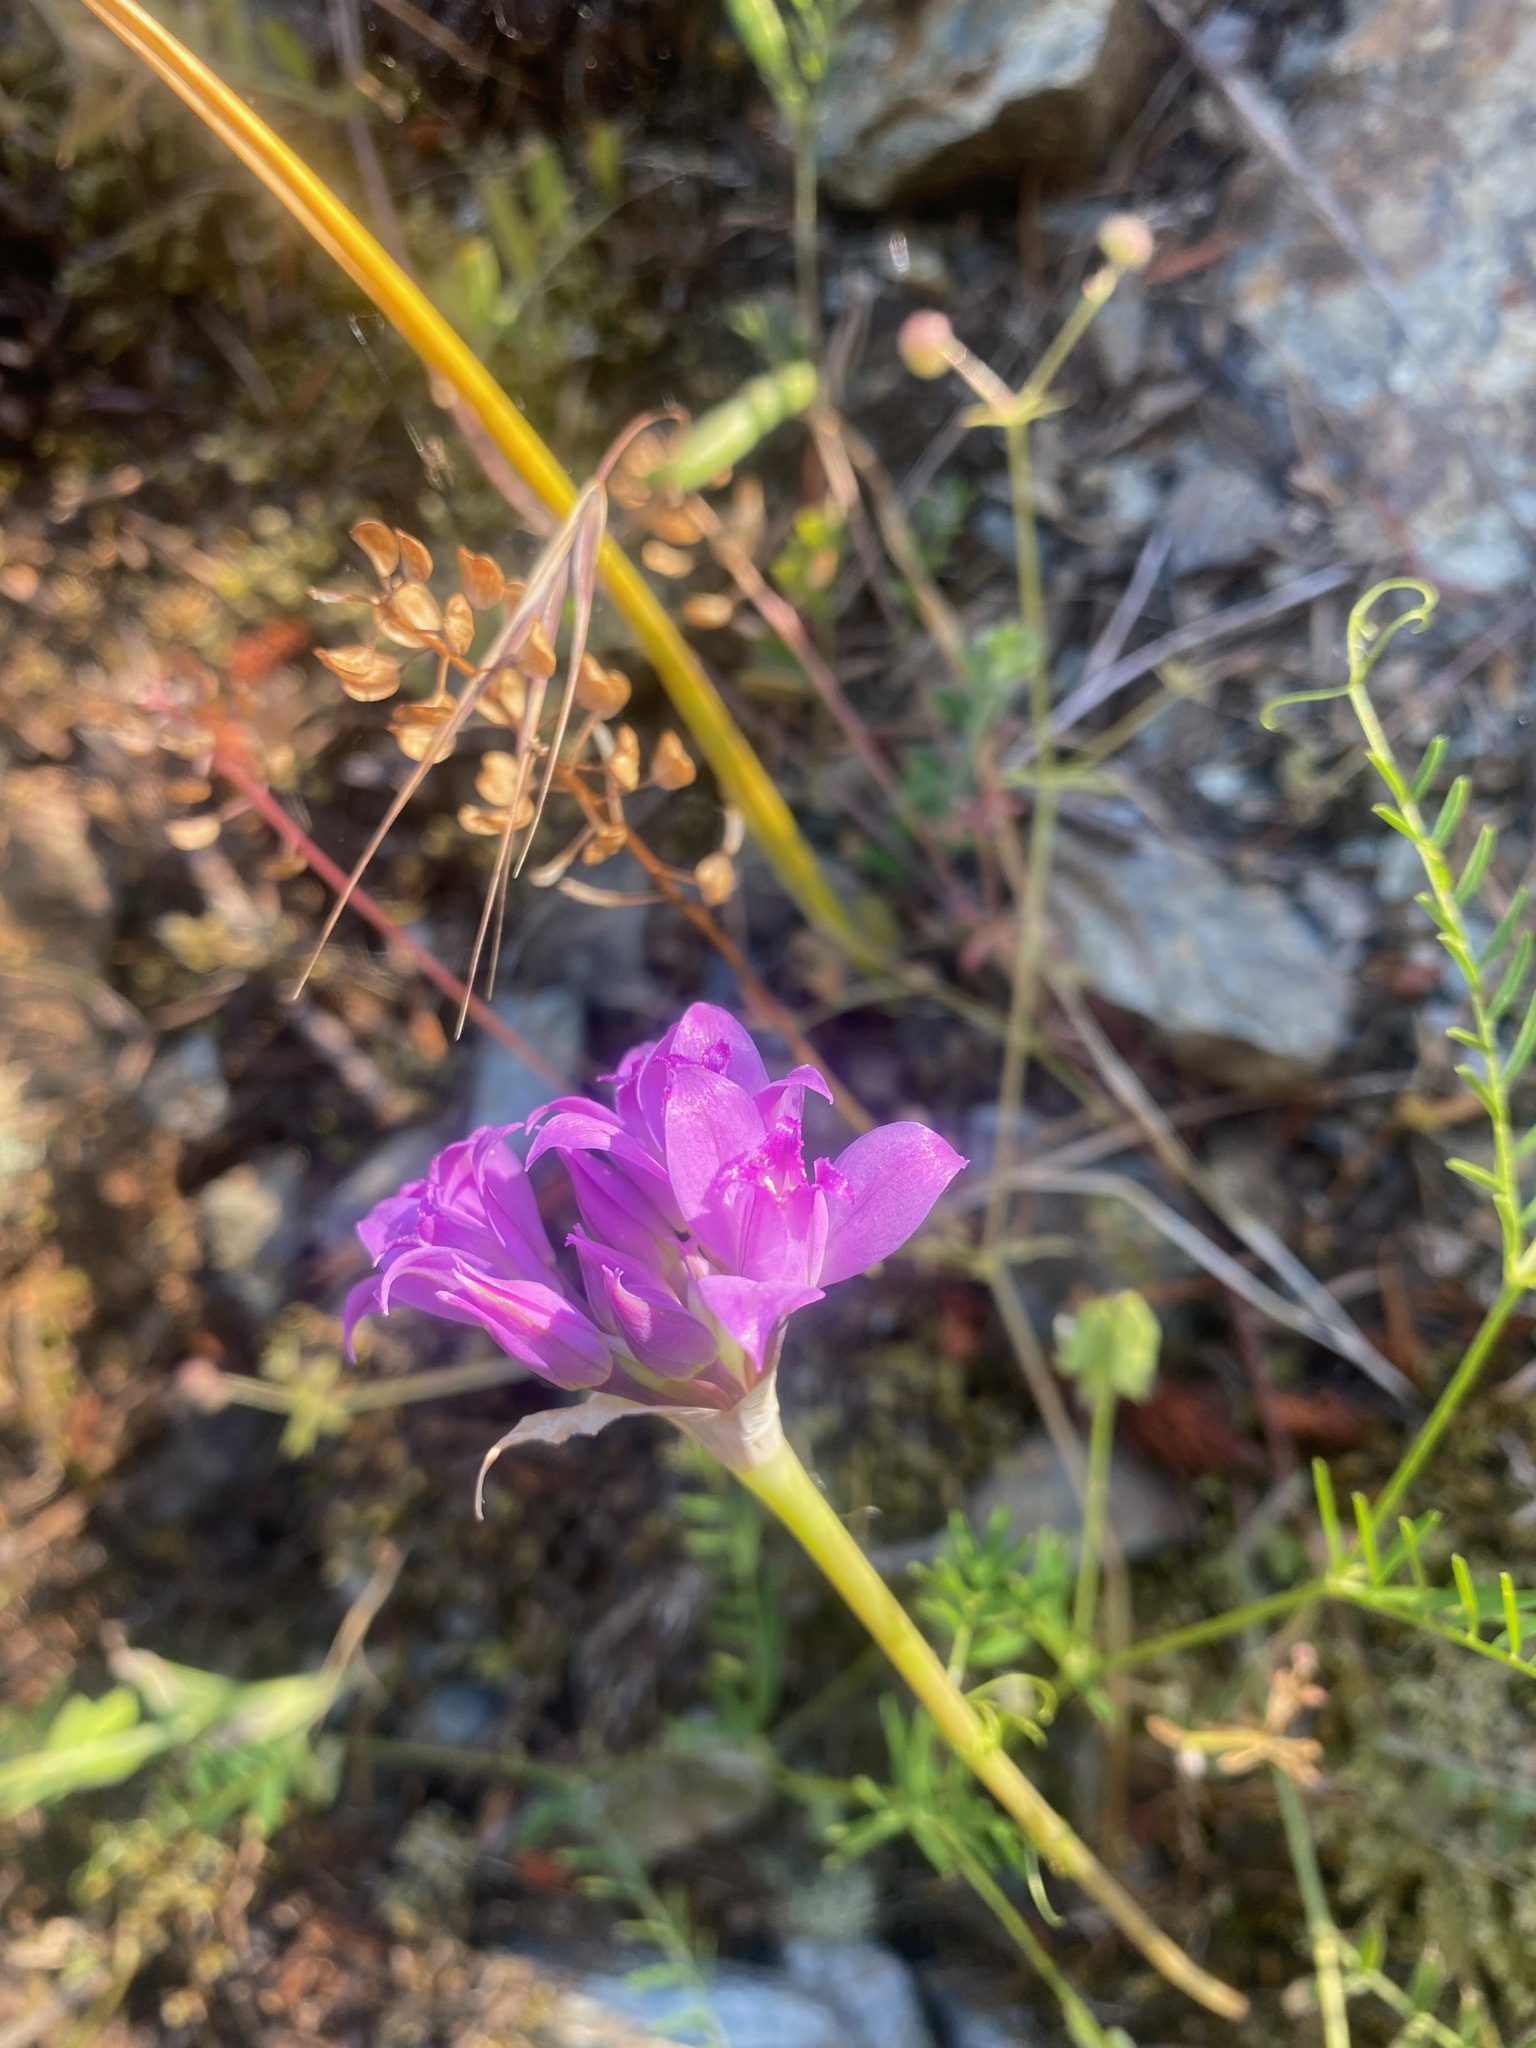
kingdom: Plantae
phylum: Tracheophyta
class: Liliopsida
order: Asparagales
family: Amaryllidaceae
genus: Allium
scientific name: Allium acuminatum
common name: Hooker's onion
